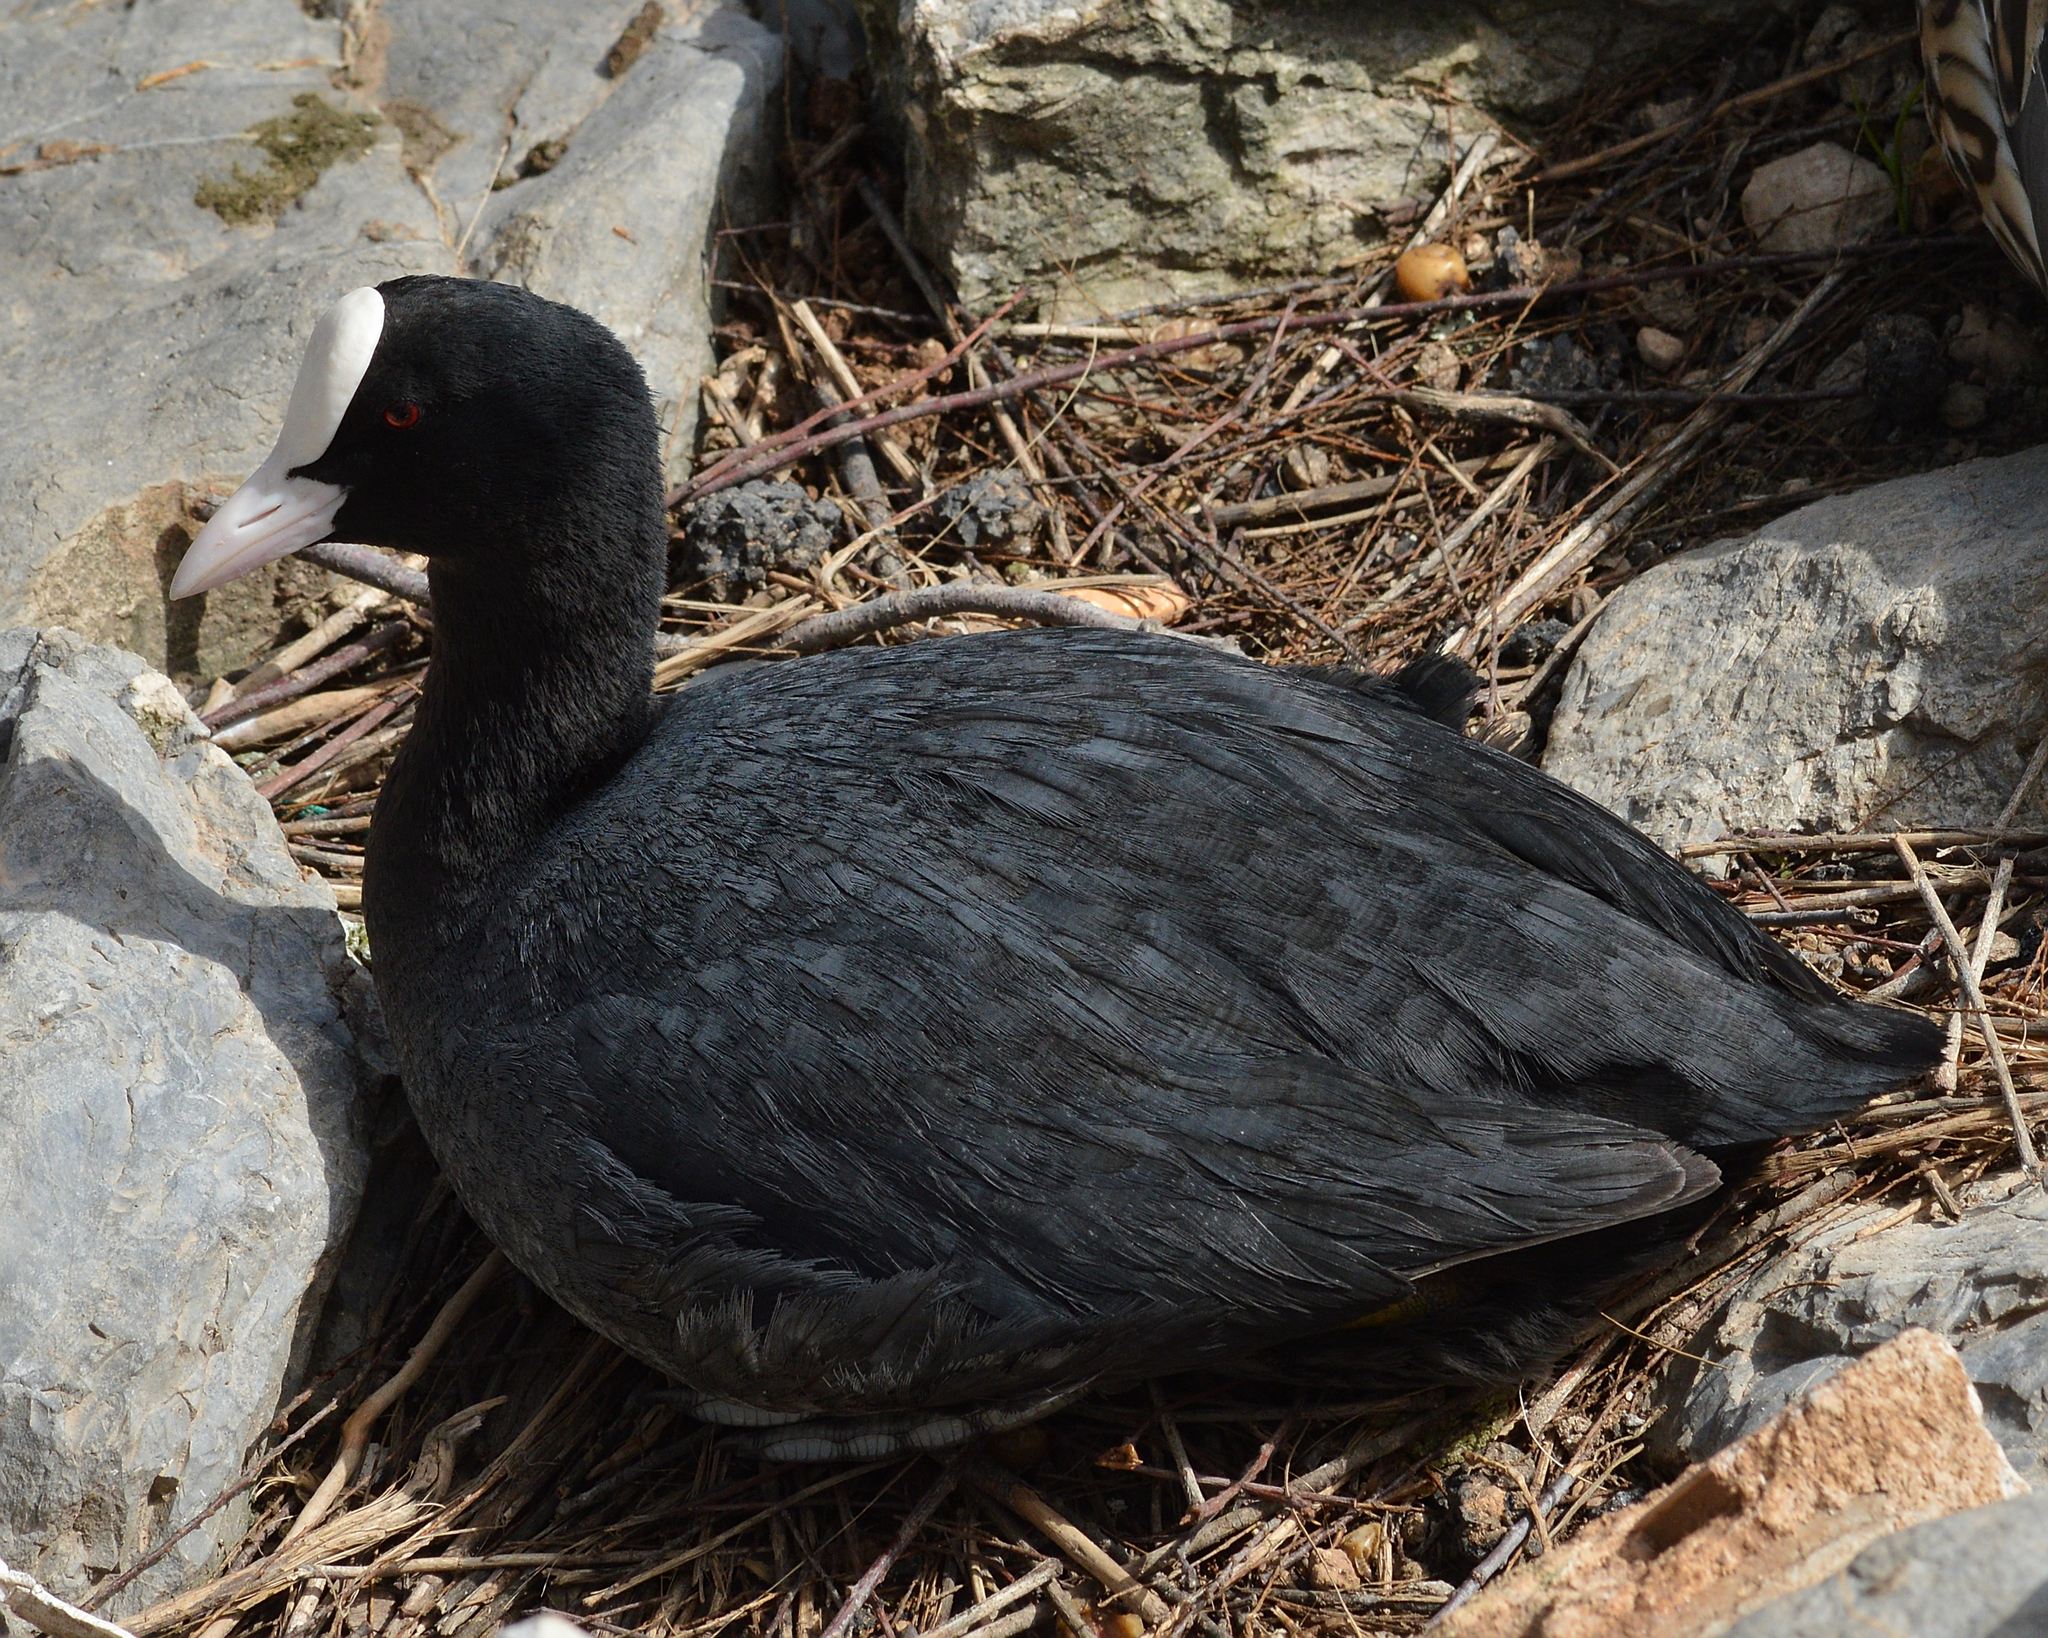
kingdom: Animalia
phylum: Chordata
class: Aves
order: Gruiformes
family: Rallidae
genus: Fulica
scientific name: Fulica atra
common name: Eurasian coot
